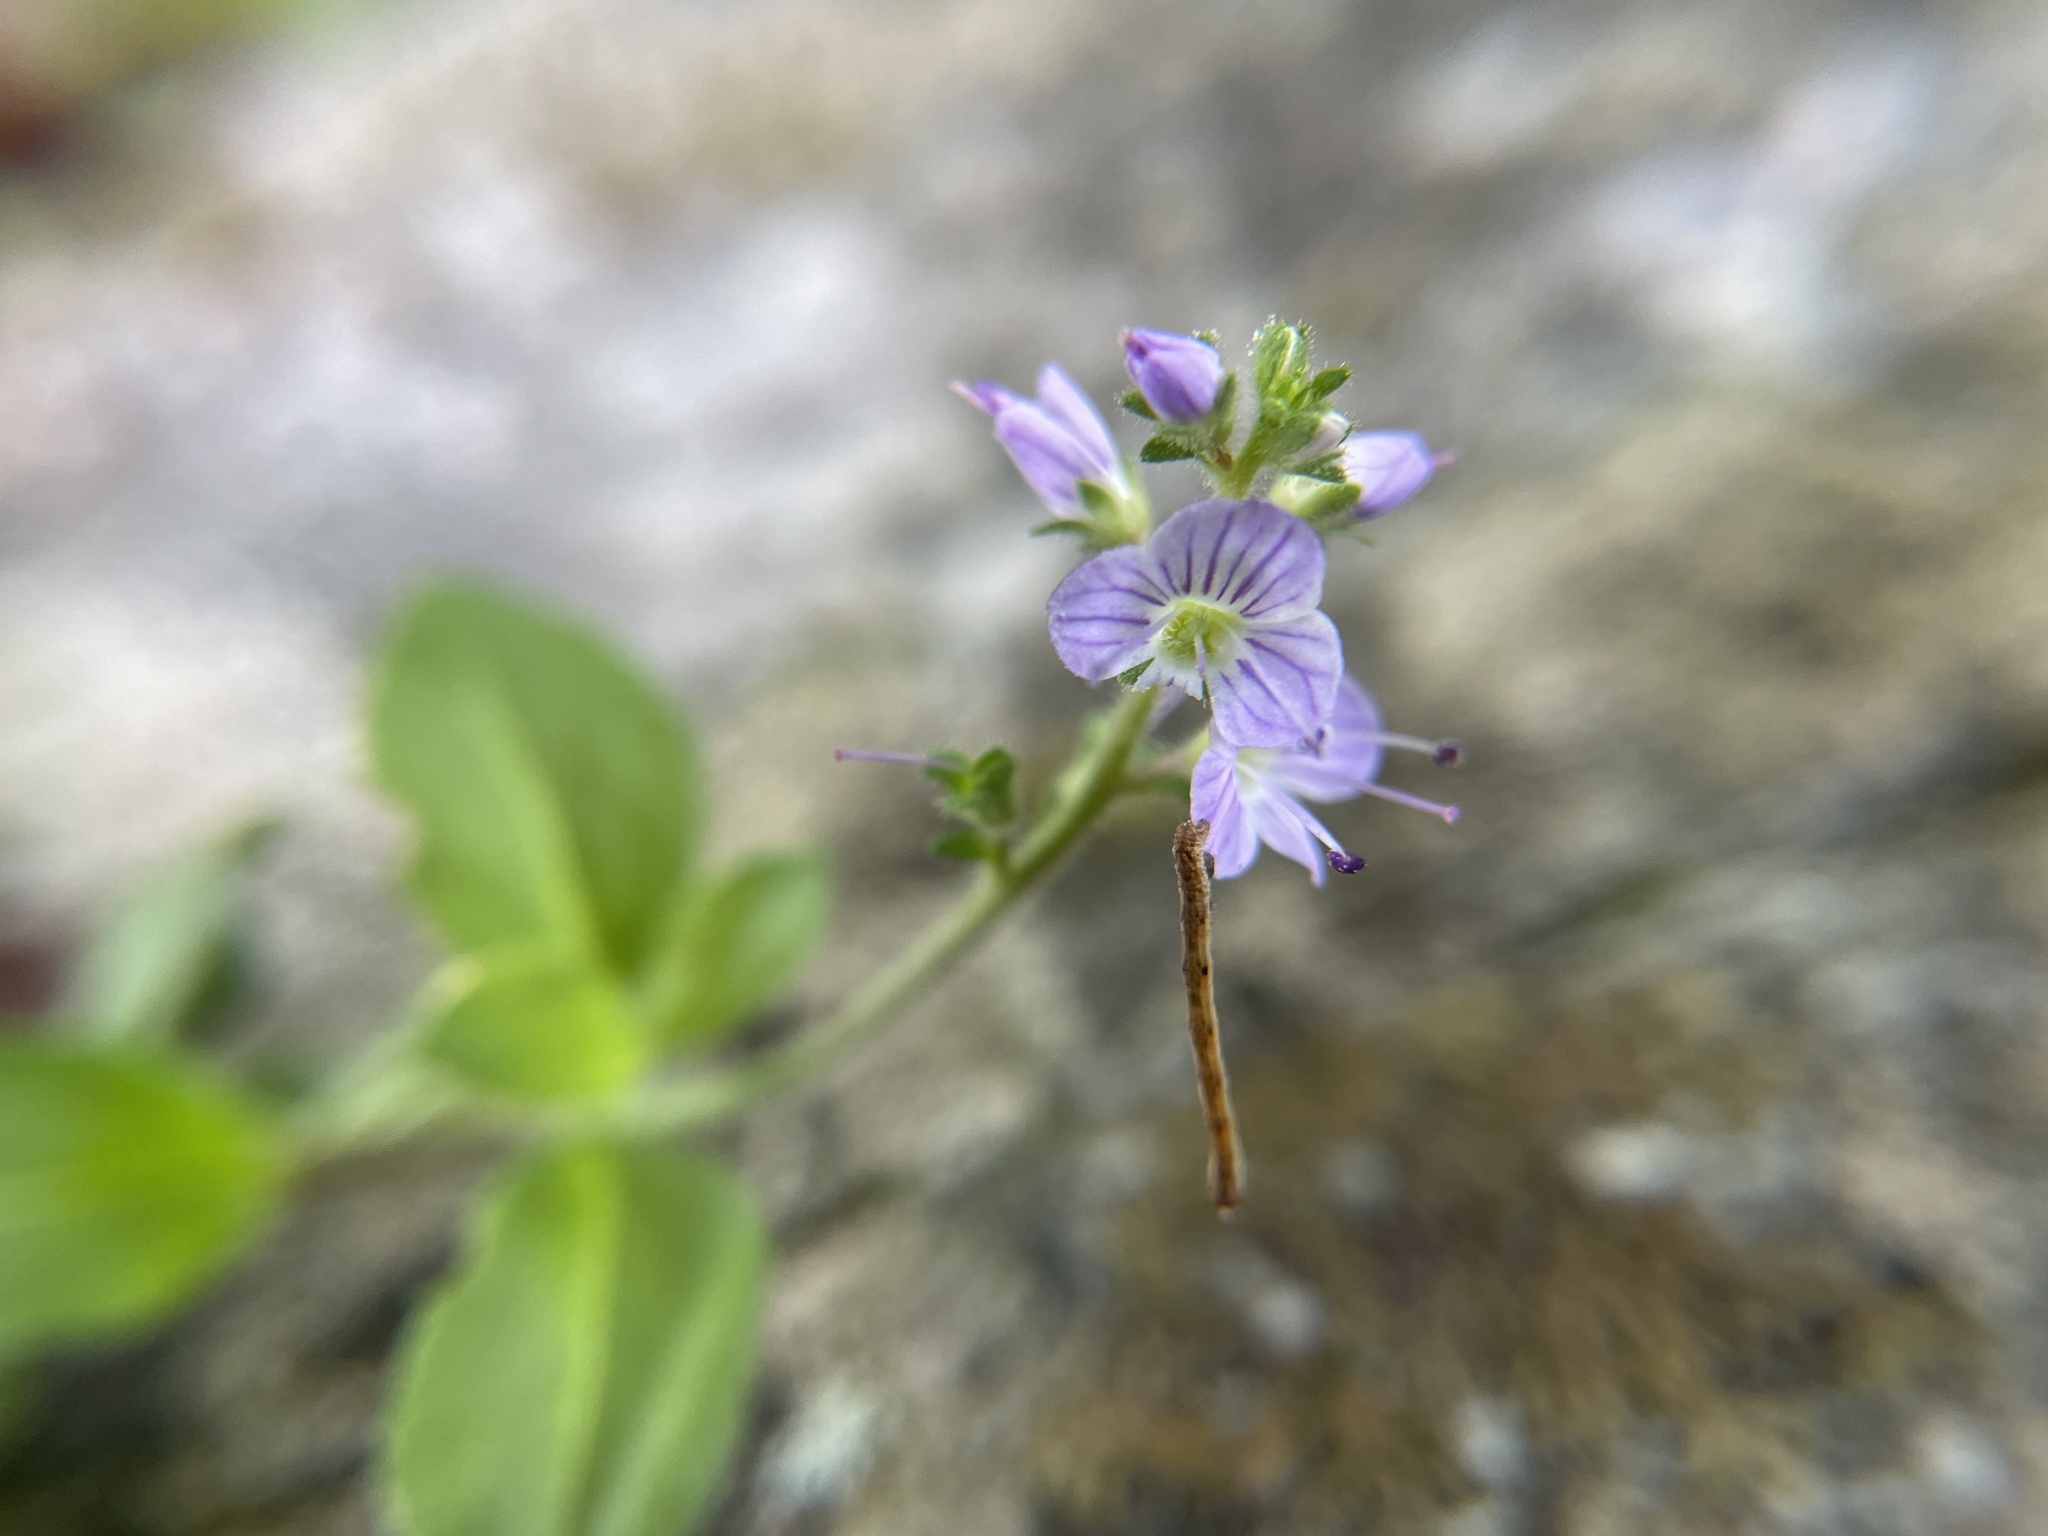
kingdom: Plantae
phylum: Tracheophyta
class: Magnoliopsida
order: Lamiales
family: Plantaginaceae
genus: Veronica
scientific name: Veronica officinalis
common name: Common speedwell
